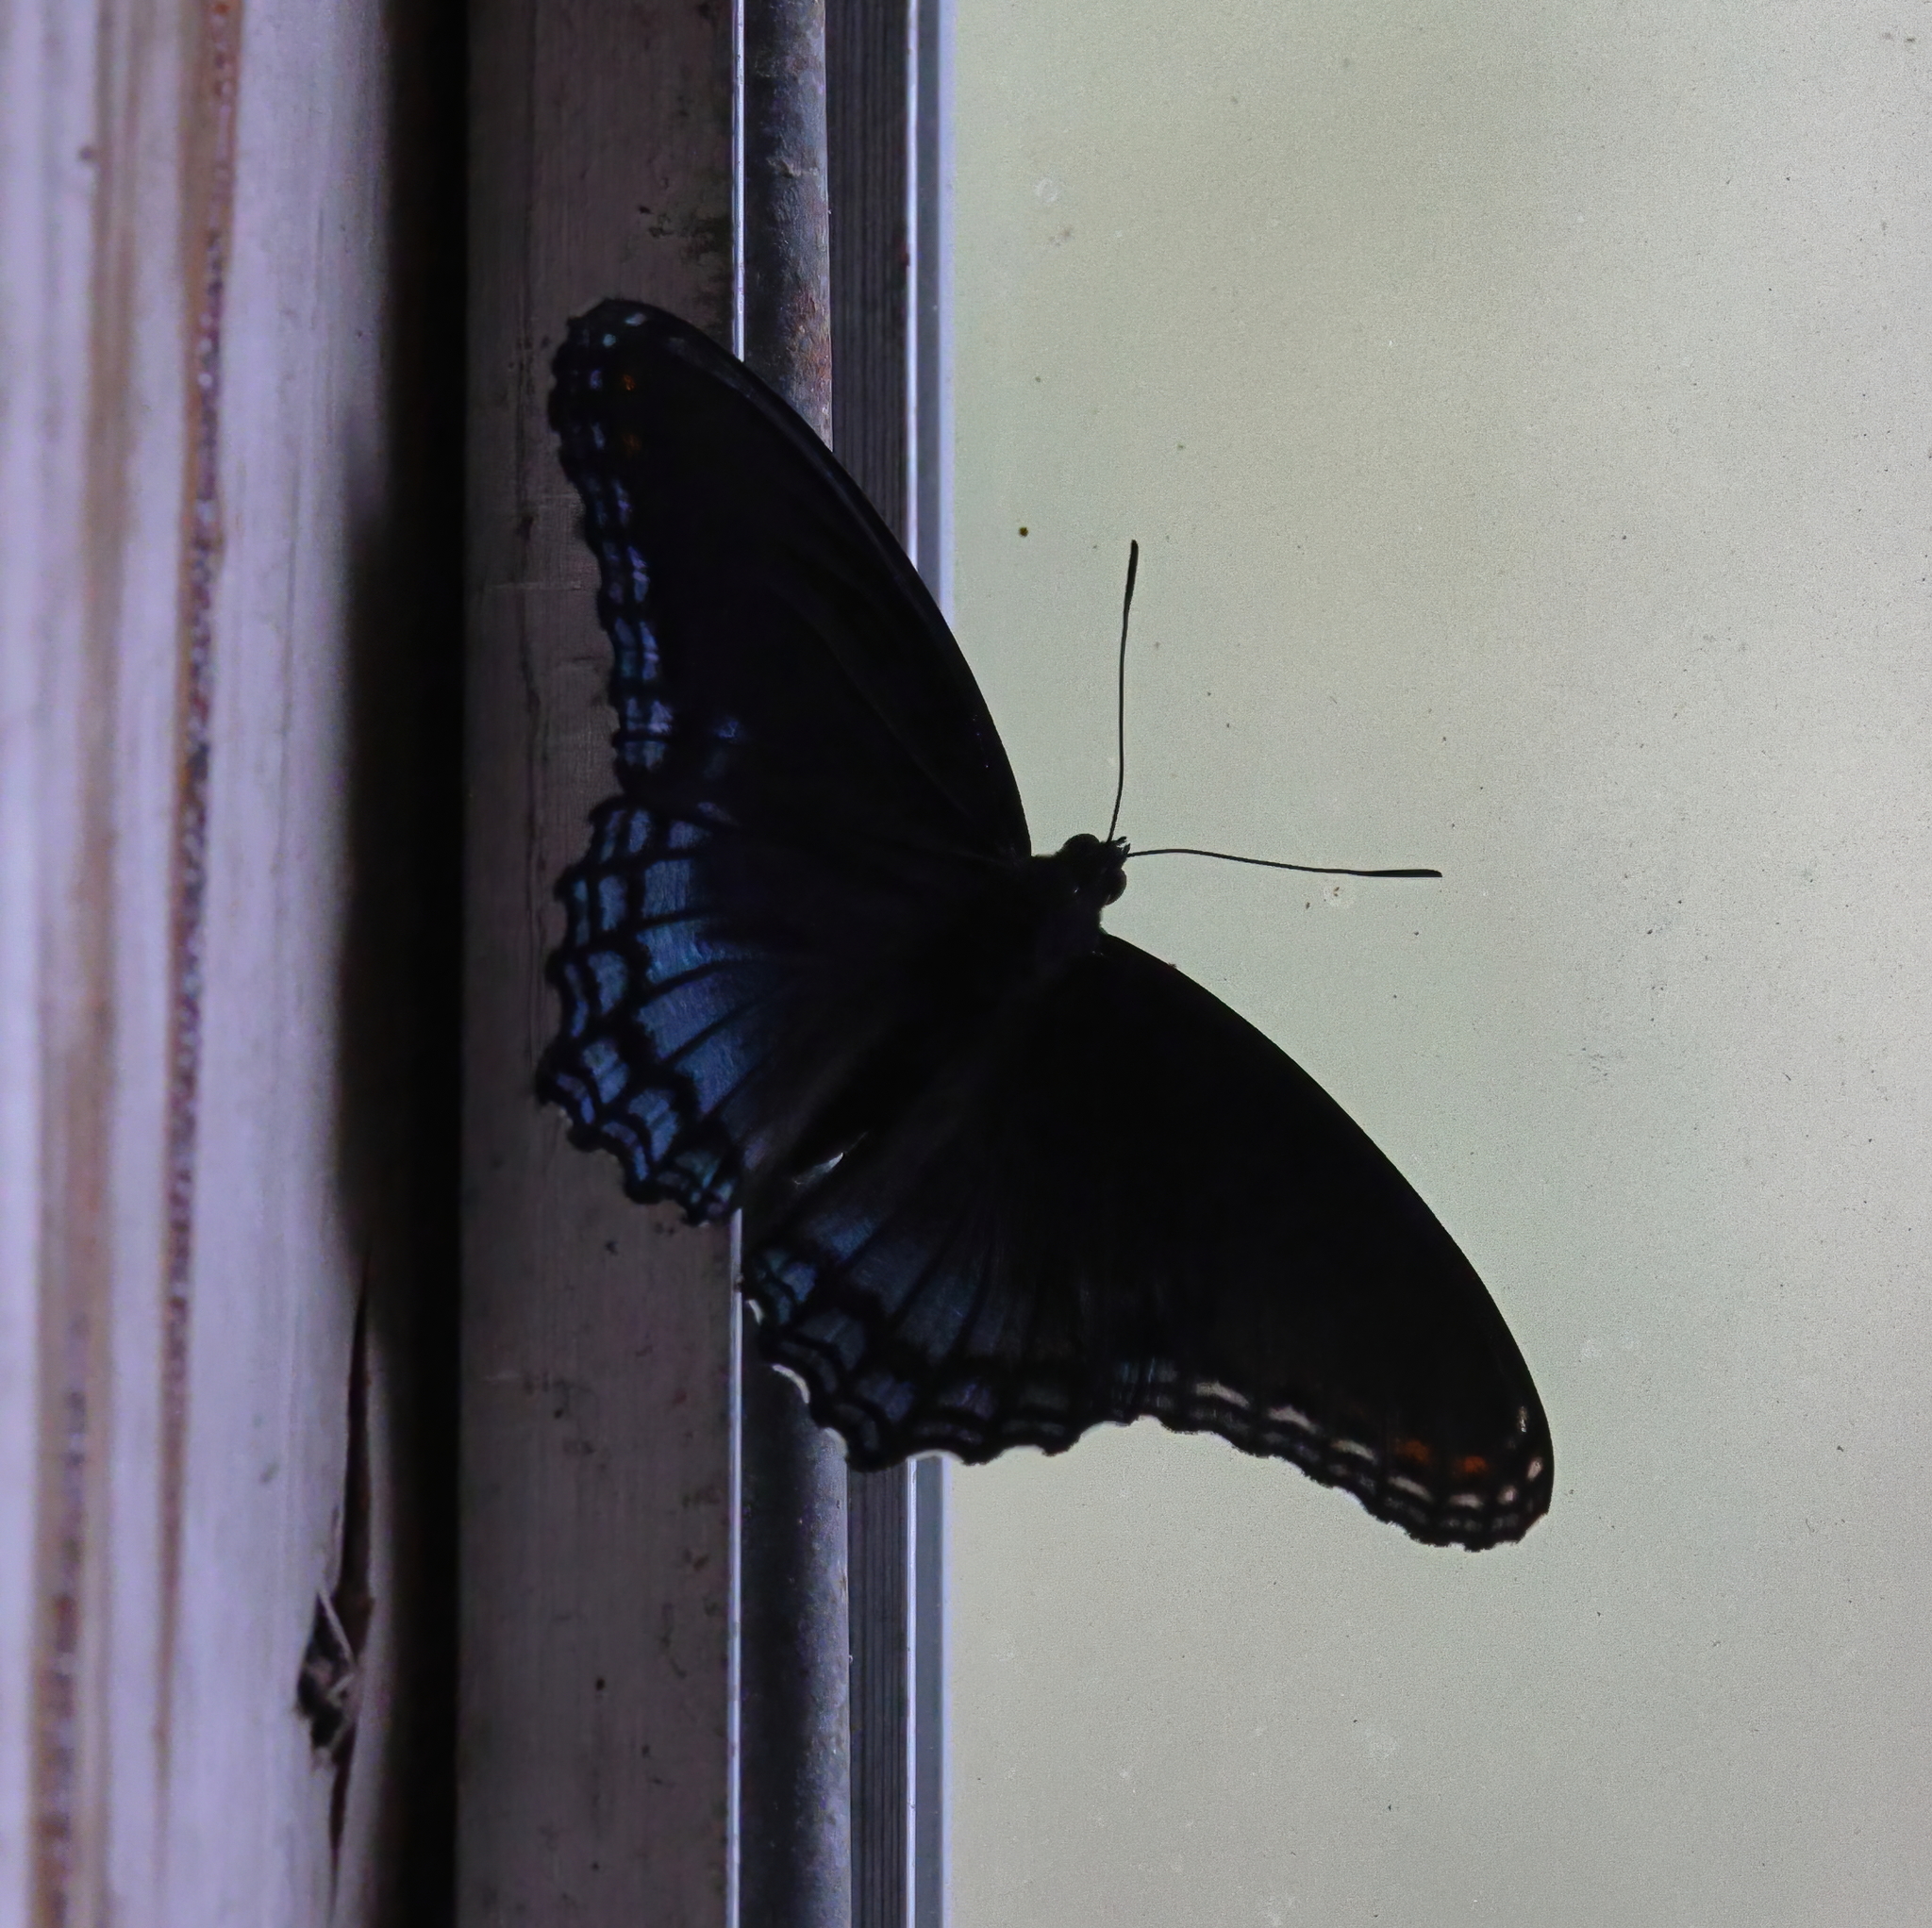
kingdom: Animalia
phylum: Arthropoda
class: Insecta
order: Lepidoptera
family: Nymphalidae
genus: Limenitis
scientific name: Limenitis astyanax
